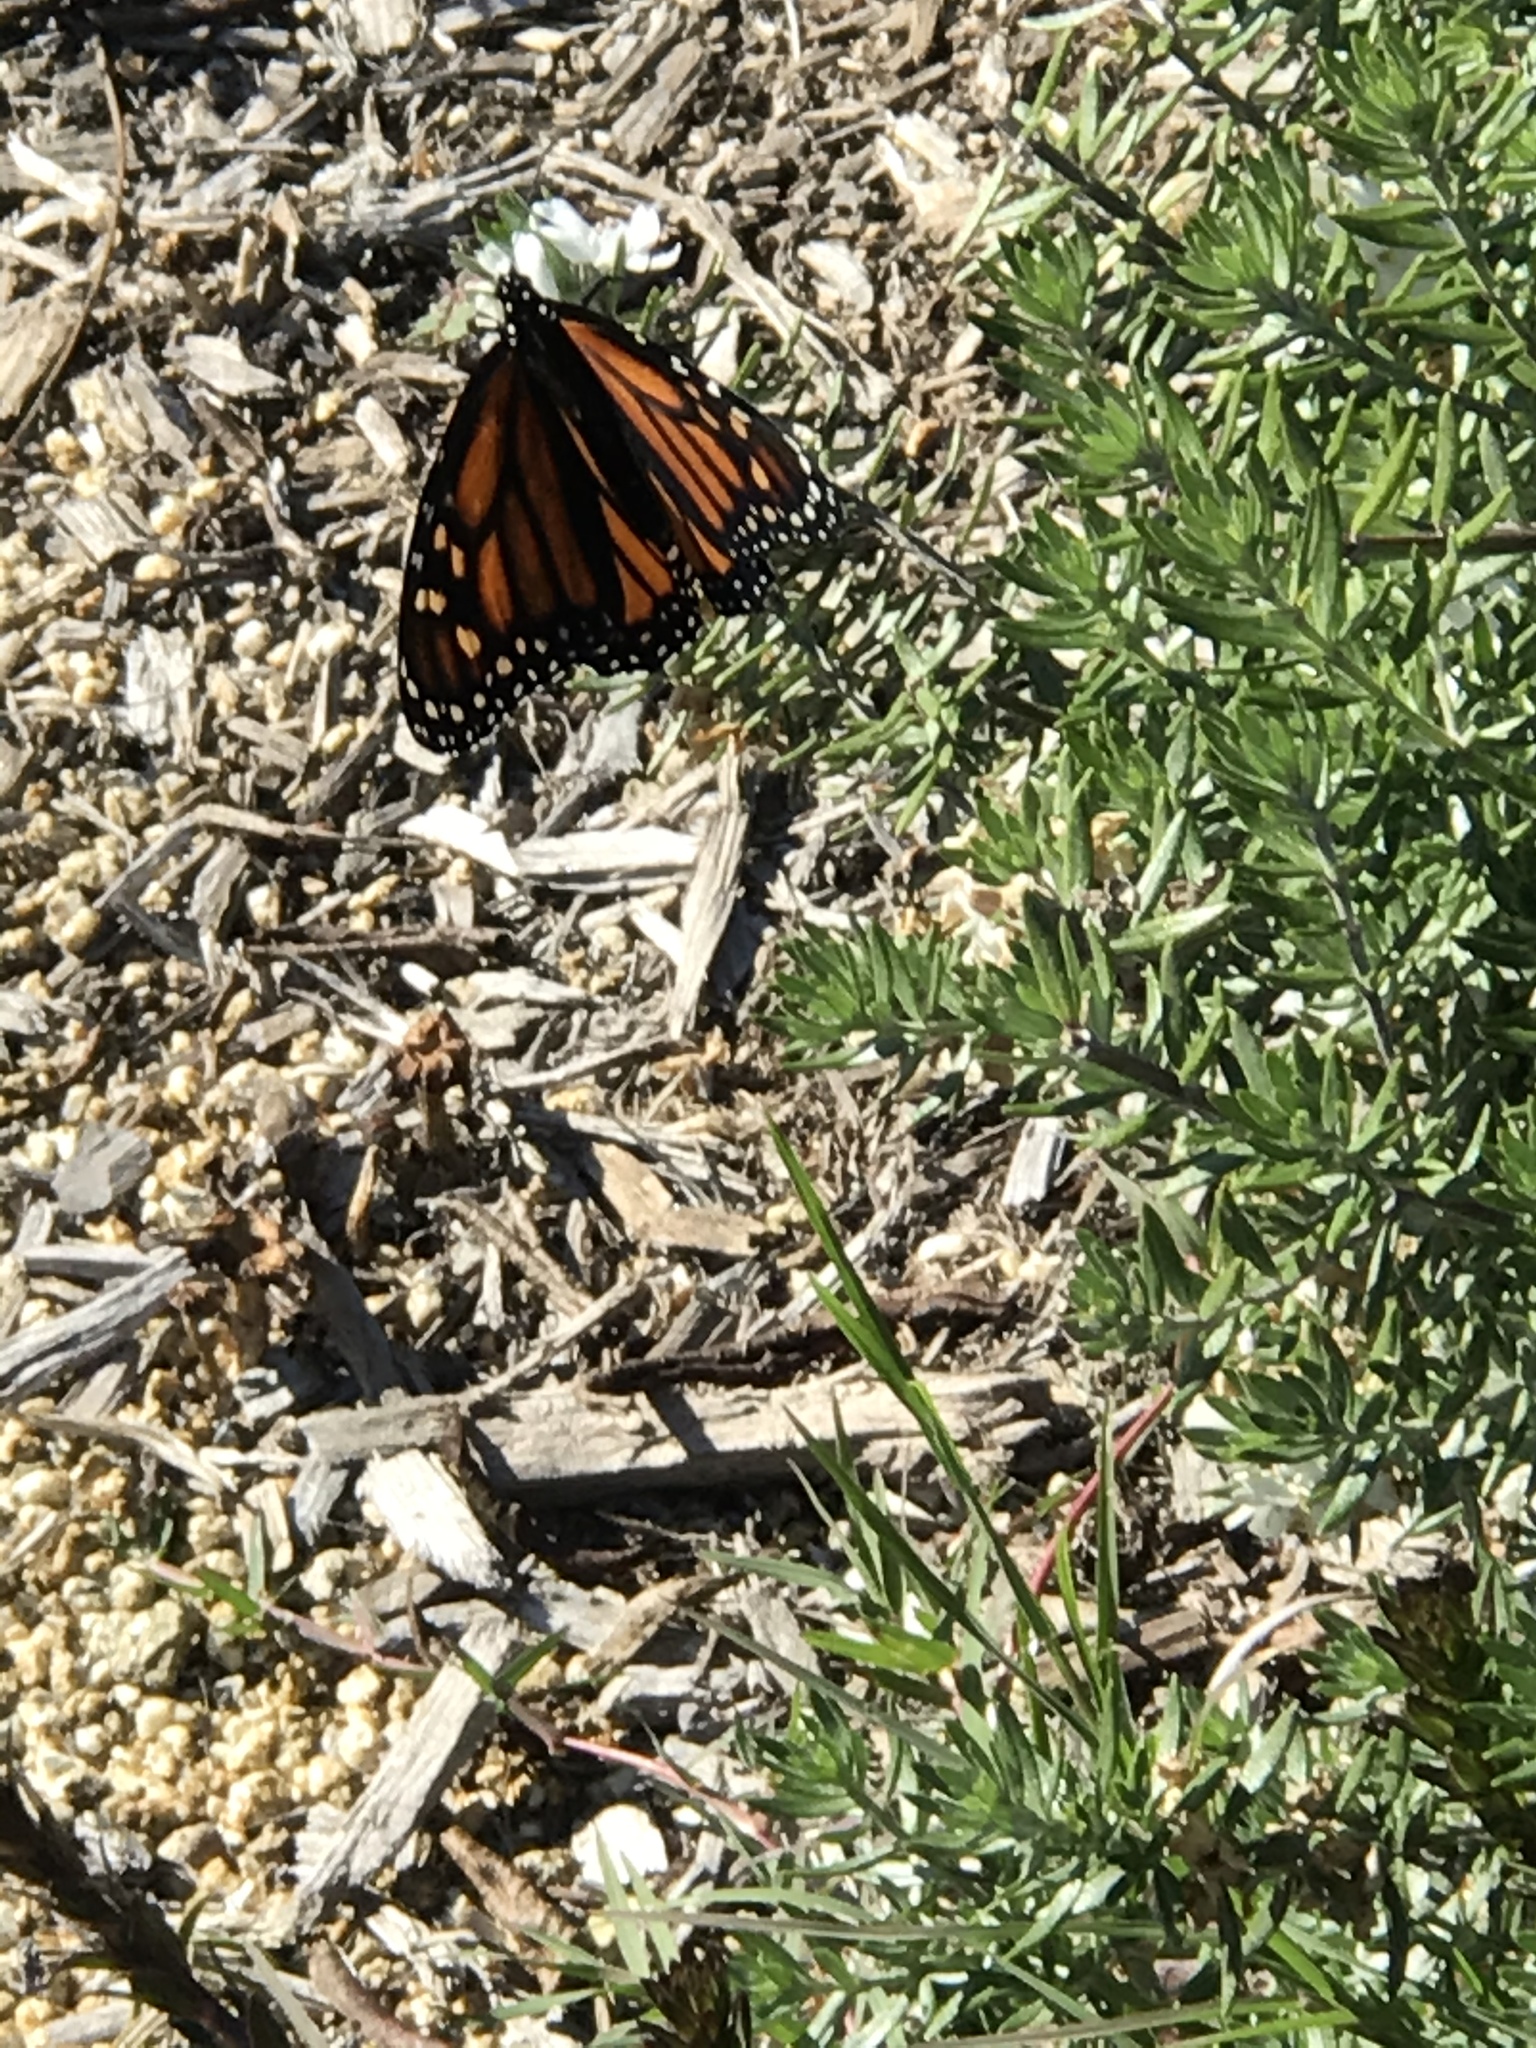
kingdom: Animalia
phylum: Arthropoda
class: Insecta
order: Lepidoptera
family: Nymphalidae
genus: Danaus
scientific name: Danaus plexippus
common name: Monarch
